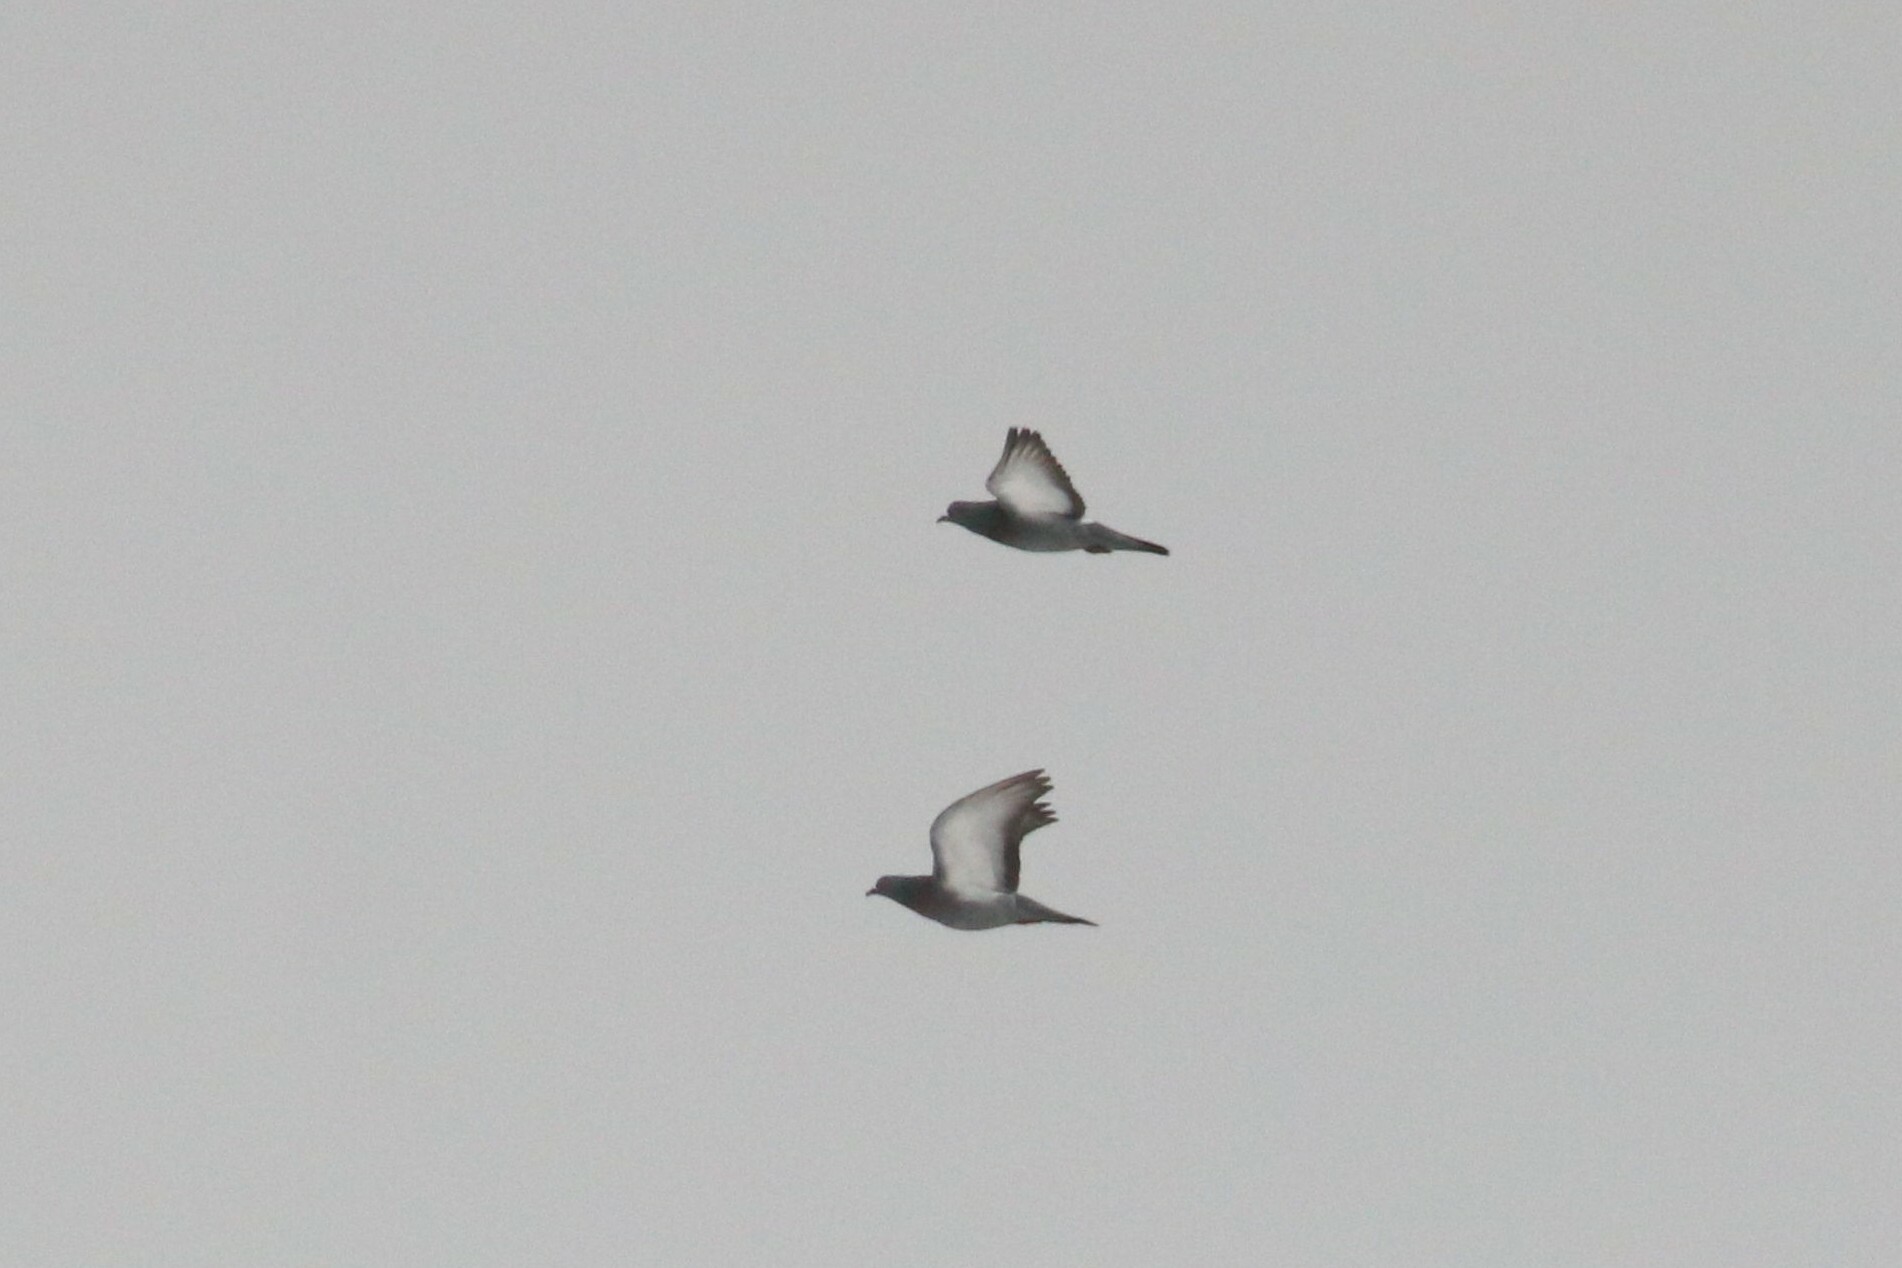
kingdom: Animalia
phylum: Chordata
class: Aves
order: Columbiformes
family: Columbidae
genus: Columba
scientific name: Columba livia
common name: Rock pigeon
